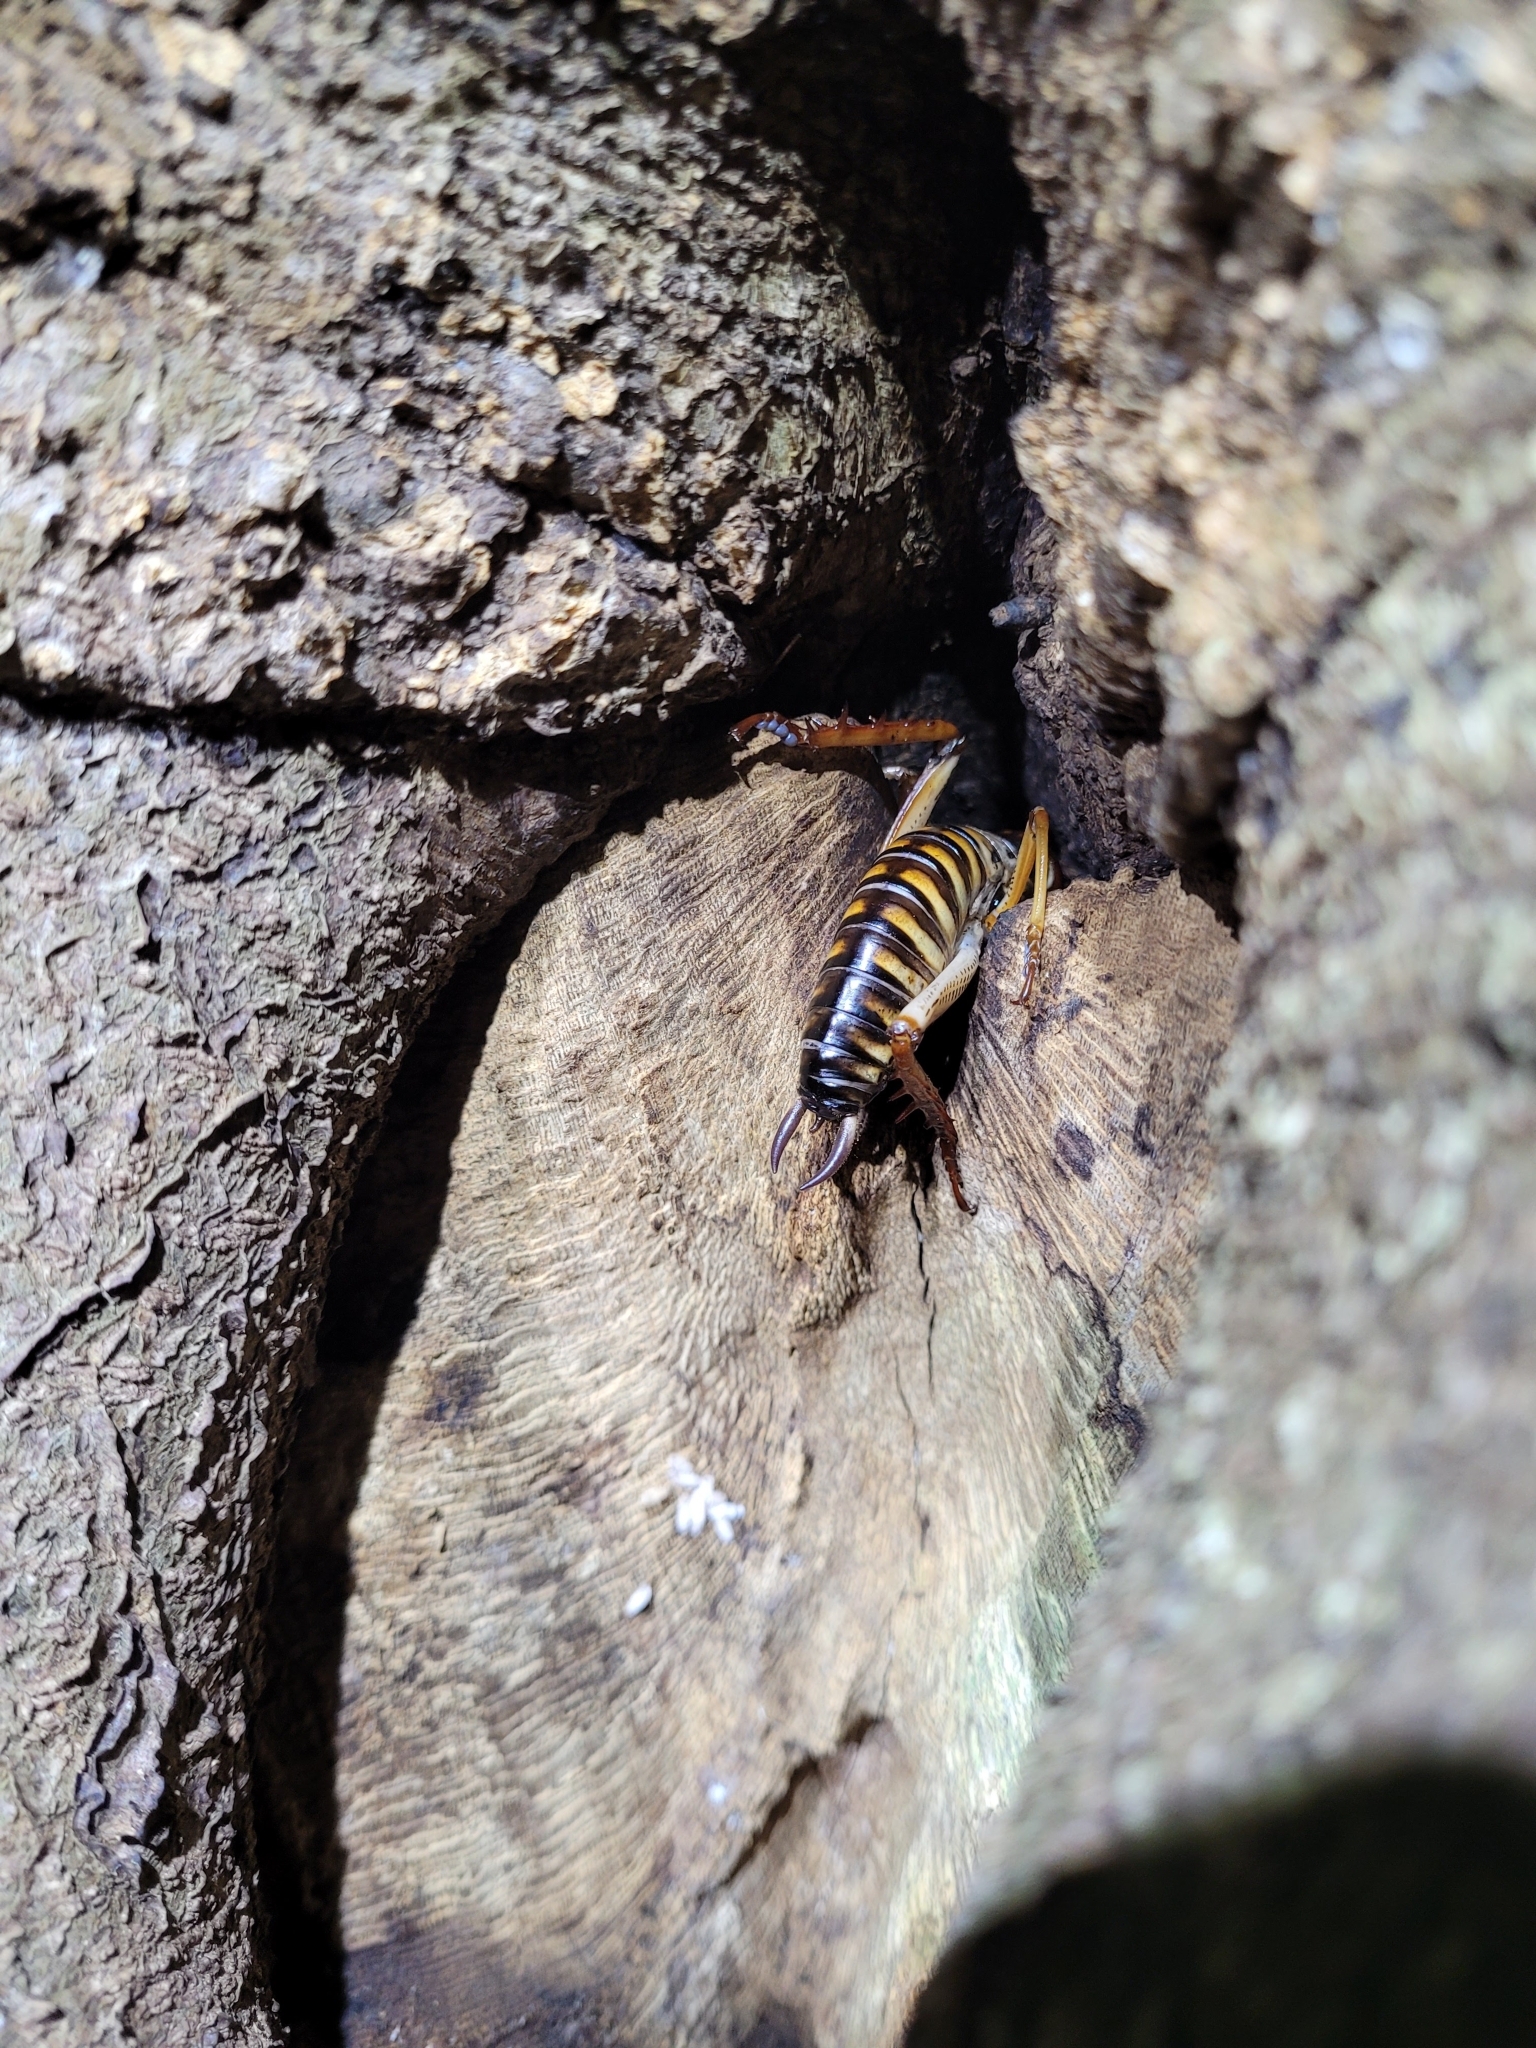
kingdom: Animalia
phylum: Arthropoda
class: Insecta
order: Orthoptera
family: Anostostomatidae
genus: Hemideina
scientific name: Hemideina crassidens
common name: Wellington tree weta
